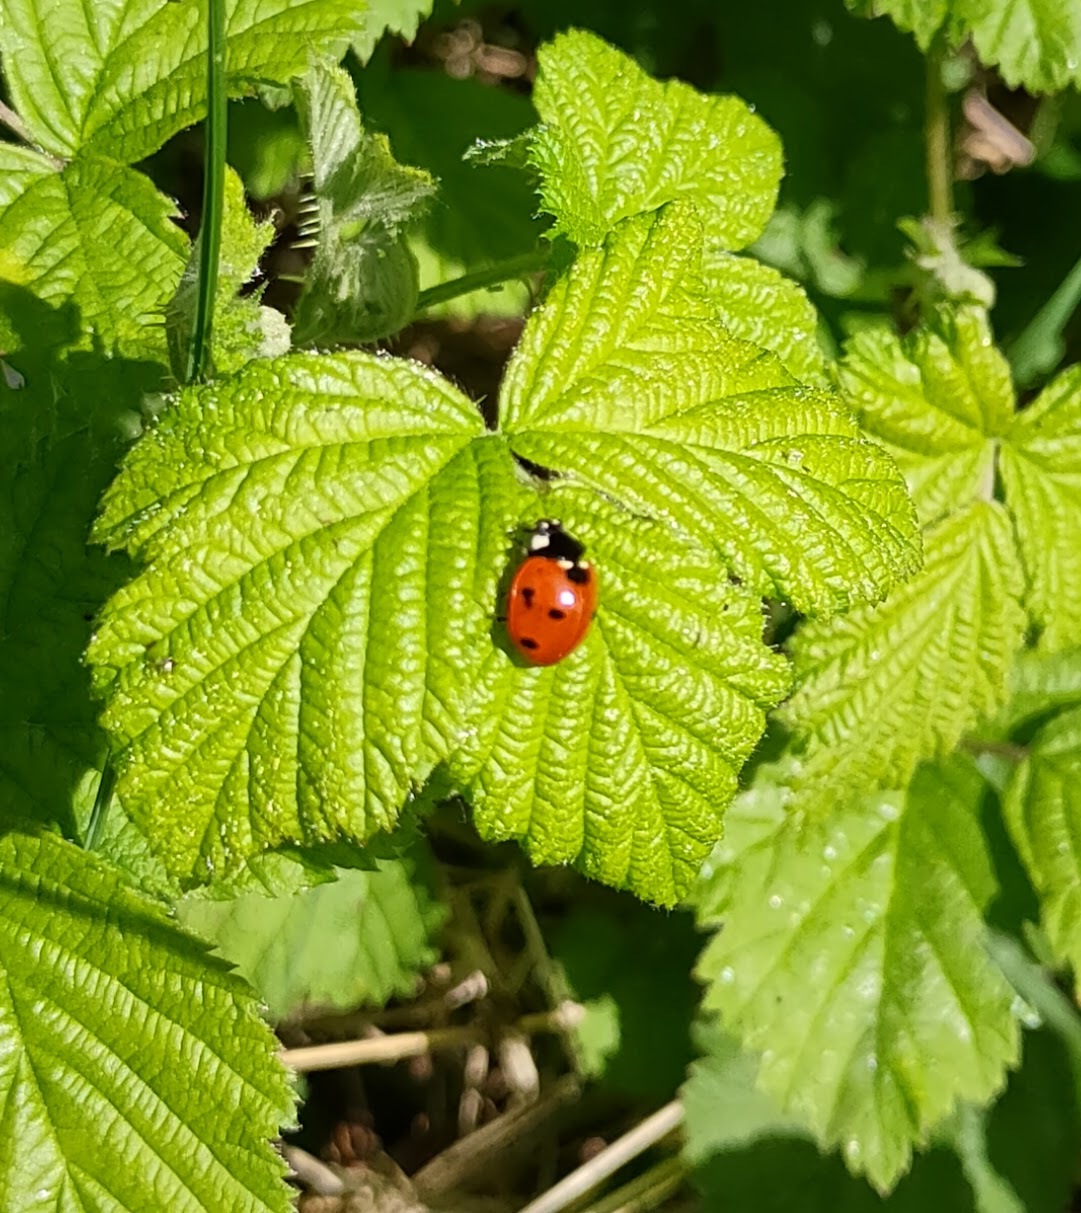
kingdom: Animalia
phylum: Arthropoda
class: Insecta
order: Coleoptera
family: Coccinellidae
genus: Coccinella
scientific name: Coccinella septempunctata
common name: Sevenspotted lady beetle
